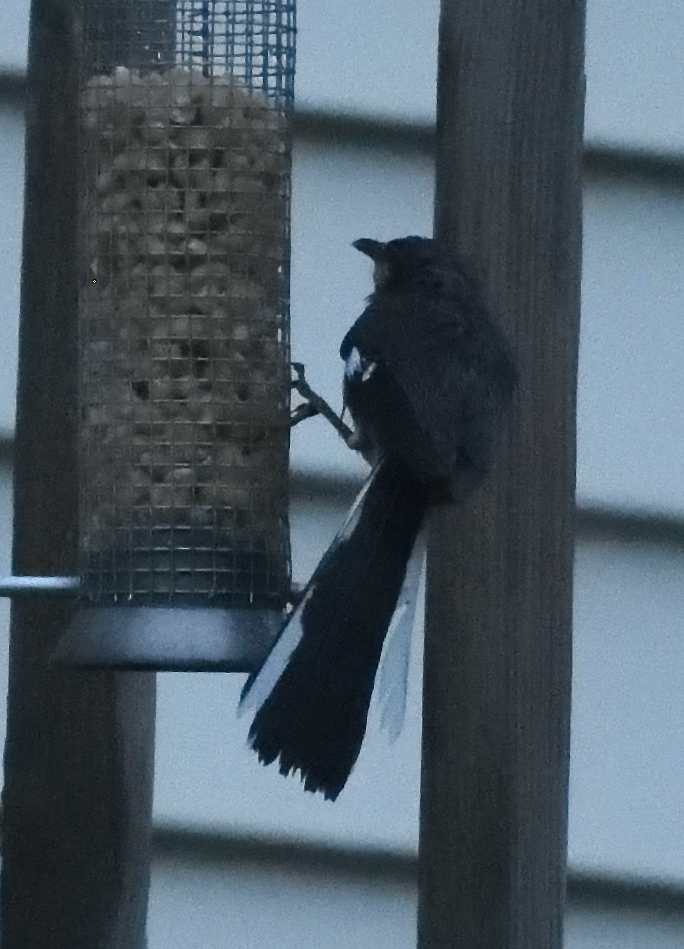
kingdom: Animalia
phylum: Chordata
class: Aves
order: Passeriformes
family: Mimidae
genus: Mimus
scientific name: Mimus polyglottos
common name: Northern mockingbird
